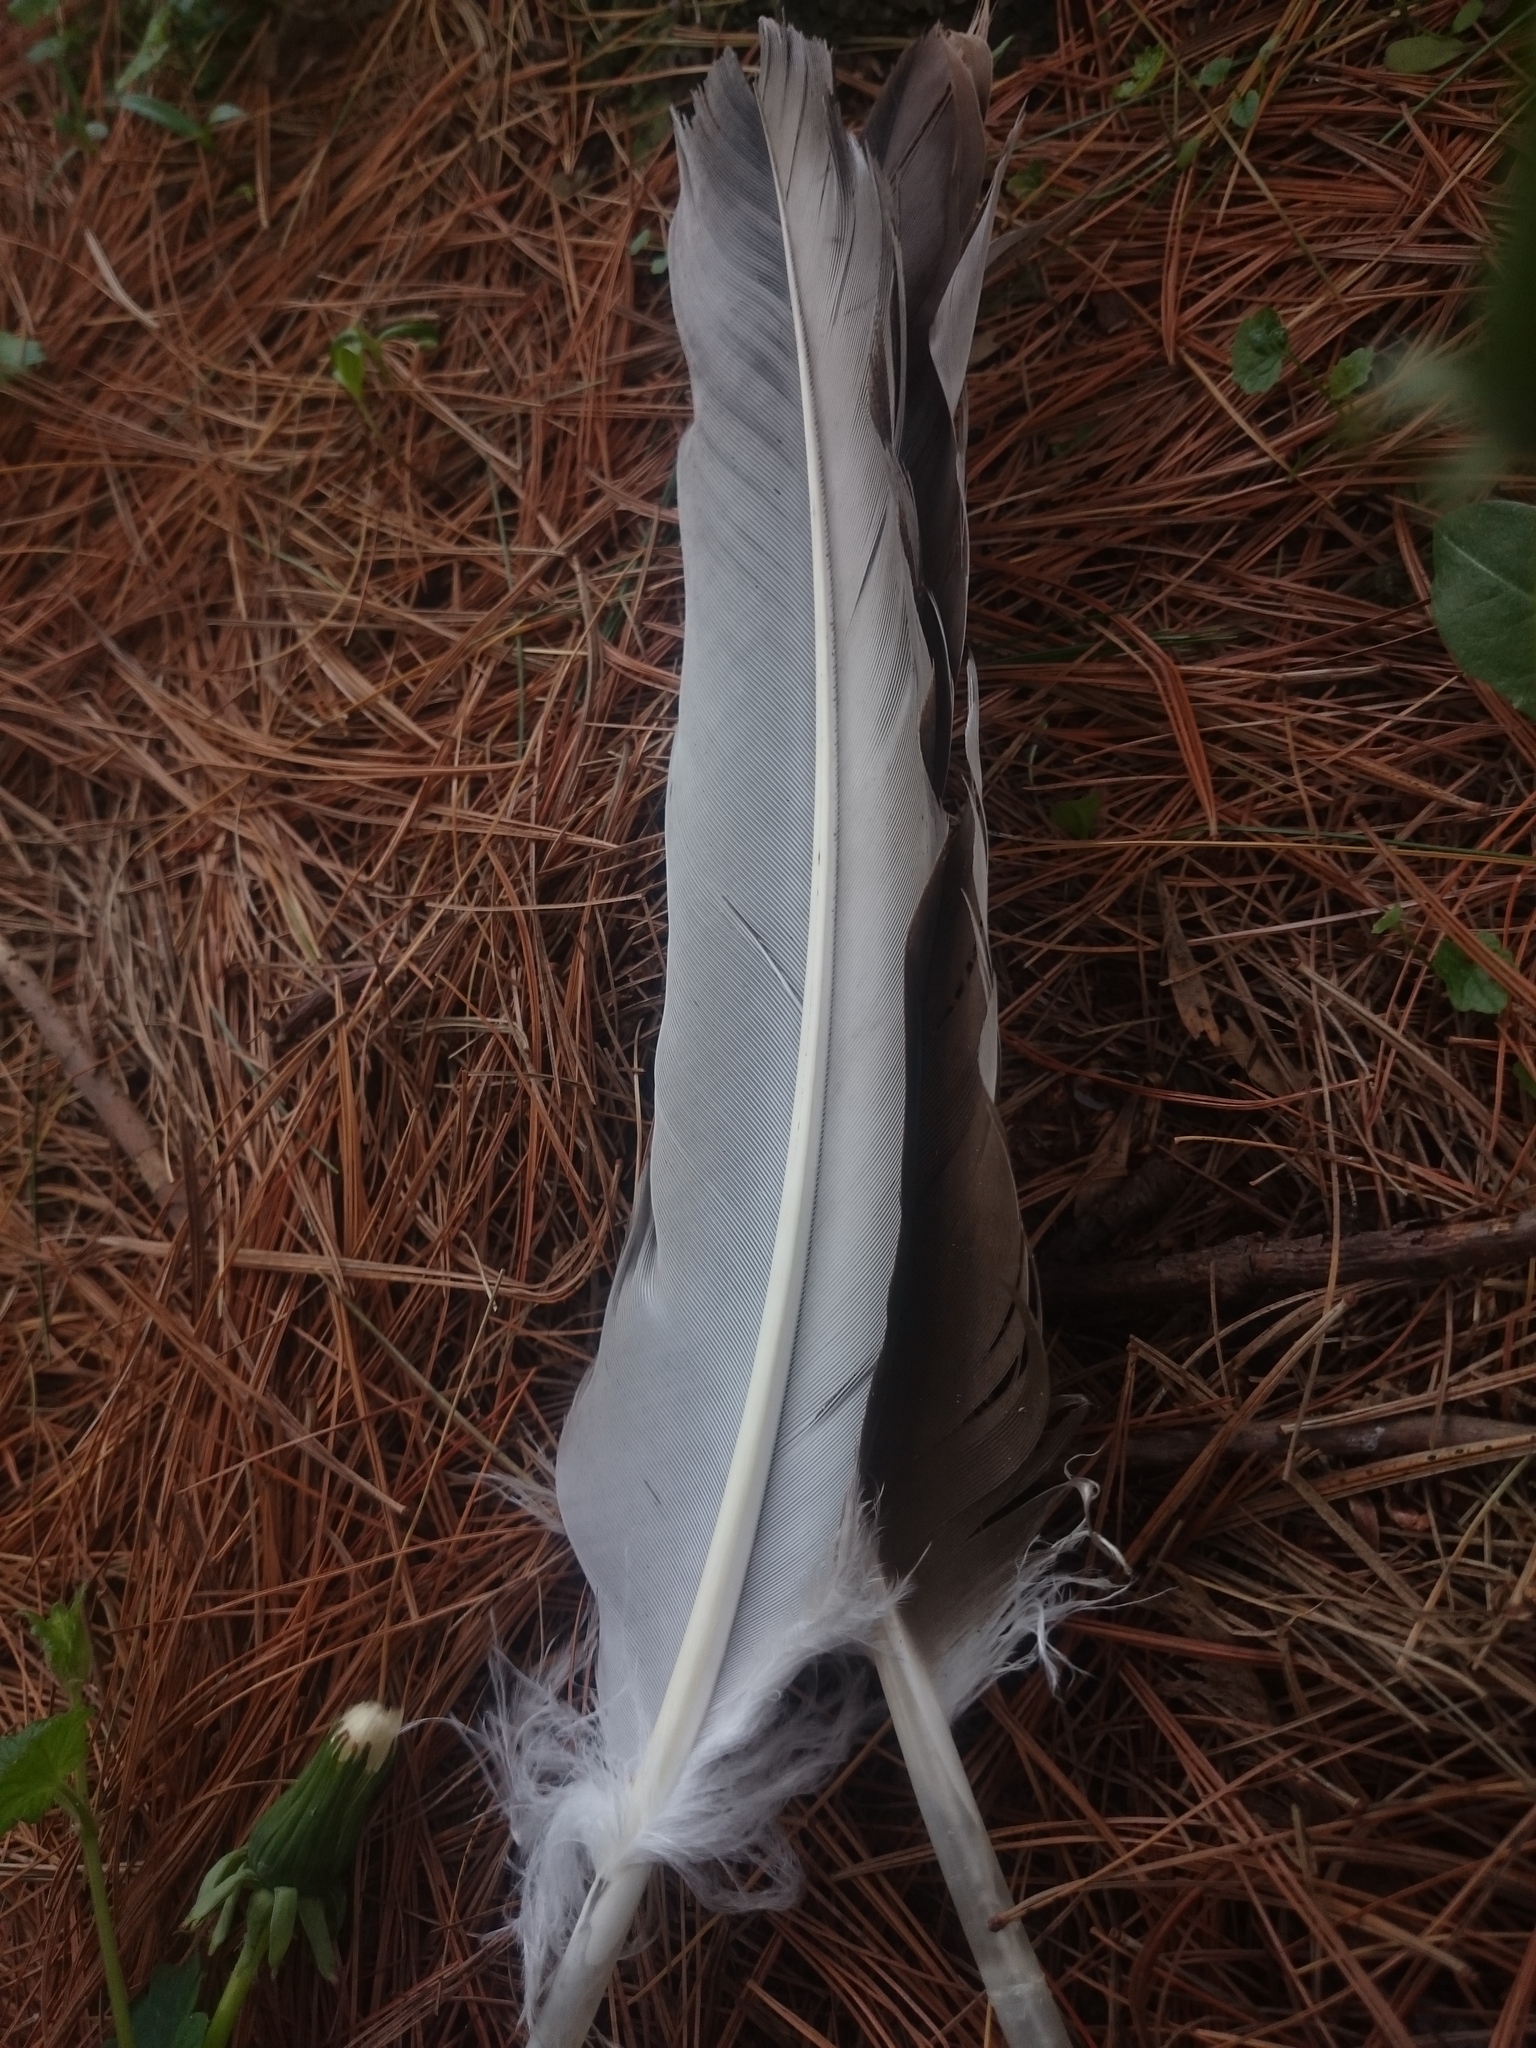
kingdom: Animalia
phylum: Chordata
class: Aves
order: Accipitriformes
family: Cathartidae
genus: Cathartes
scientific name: Cathartes aura
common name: Turkey vulture
